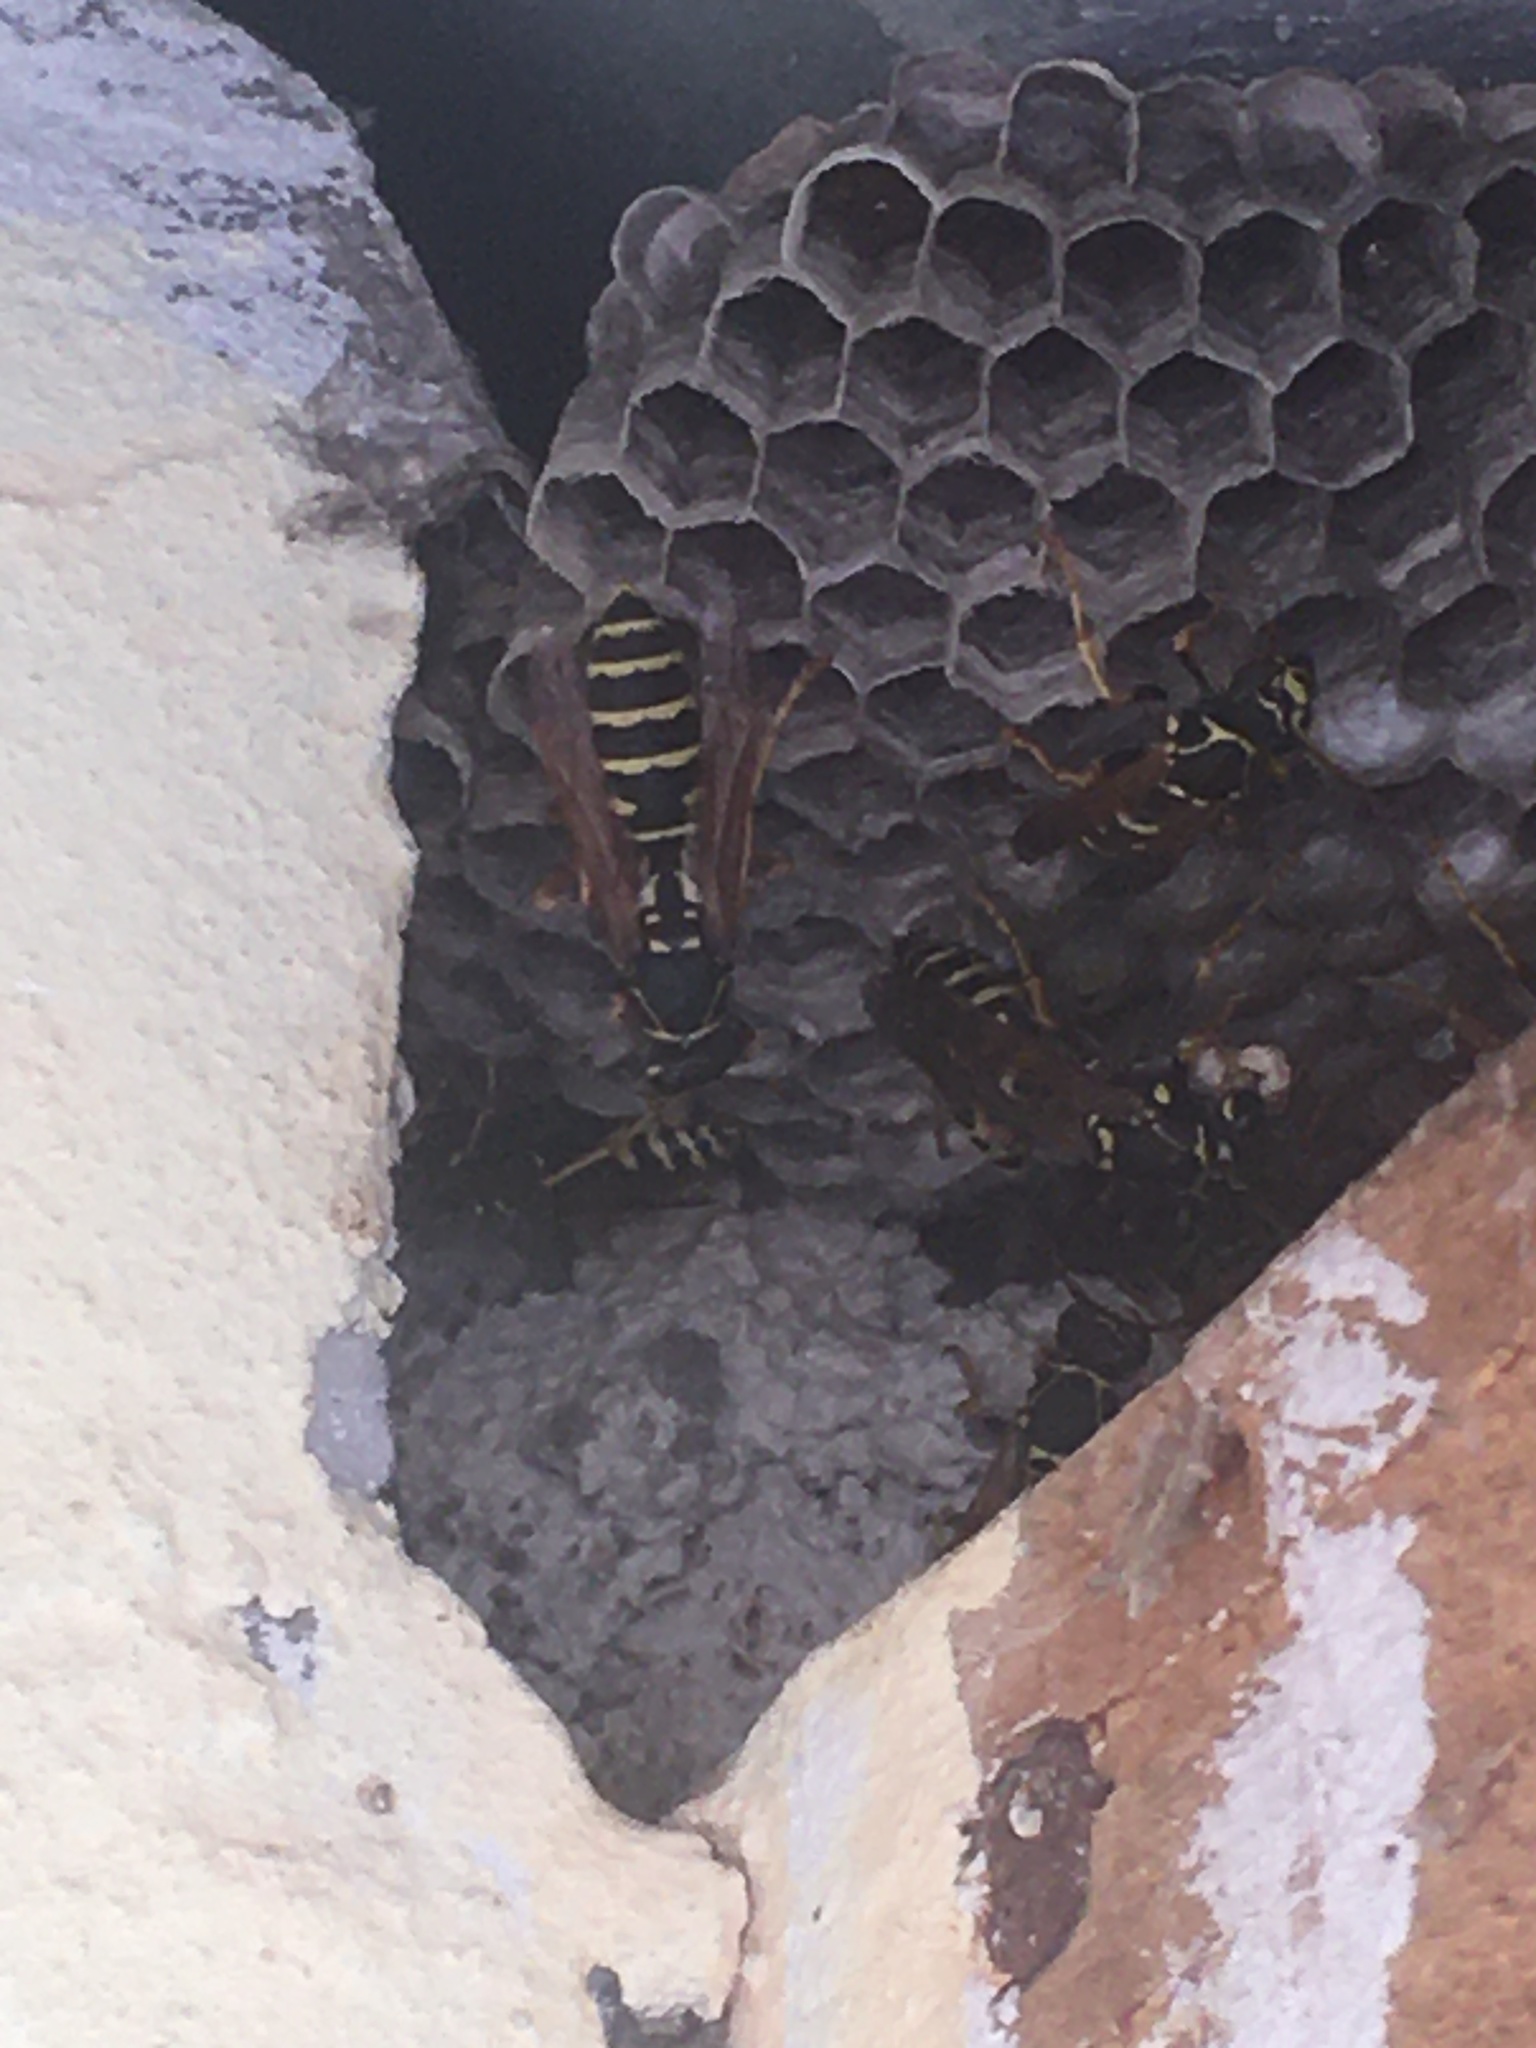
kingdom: Animalia
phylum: Arthropoda
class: Insecta
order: Hymenoptera
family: Eumenidae
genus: Polistes
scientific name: Polistes nimpha
